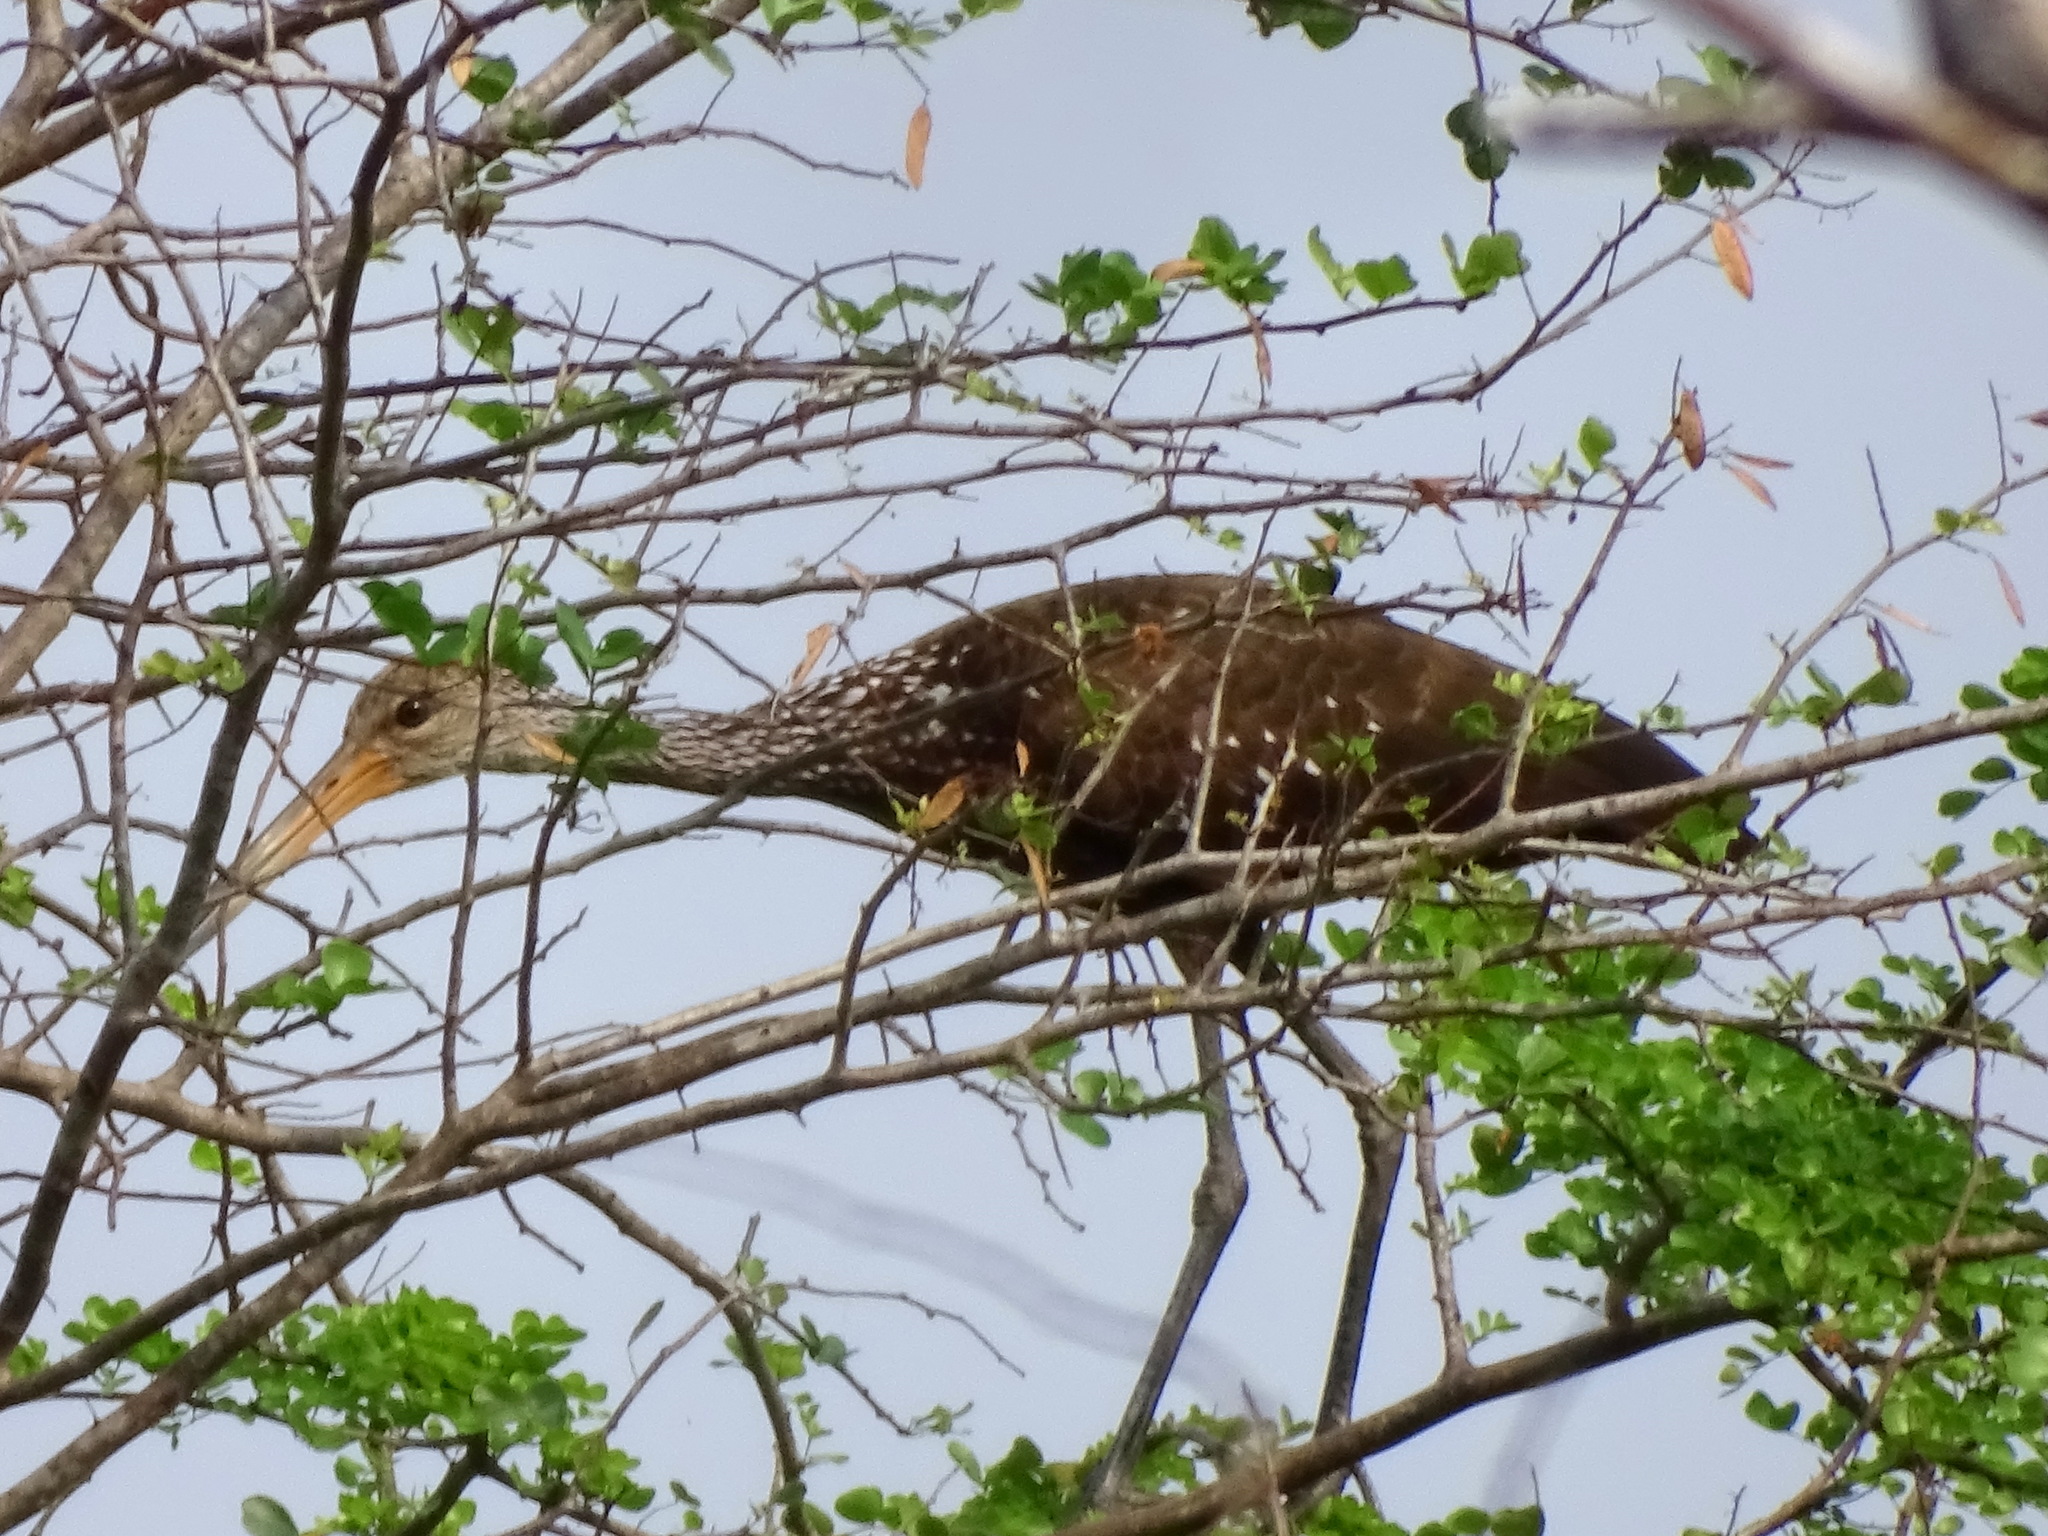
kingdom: Animalia
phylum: Chordata
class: Aves
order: Gruiformes
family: Aramidae
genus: Aramus
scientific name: Aramus guarauna
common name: Limpkin
